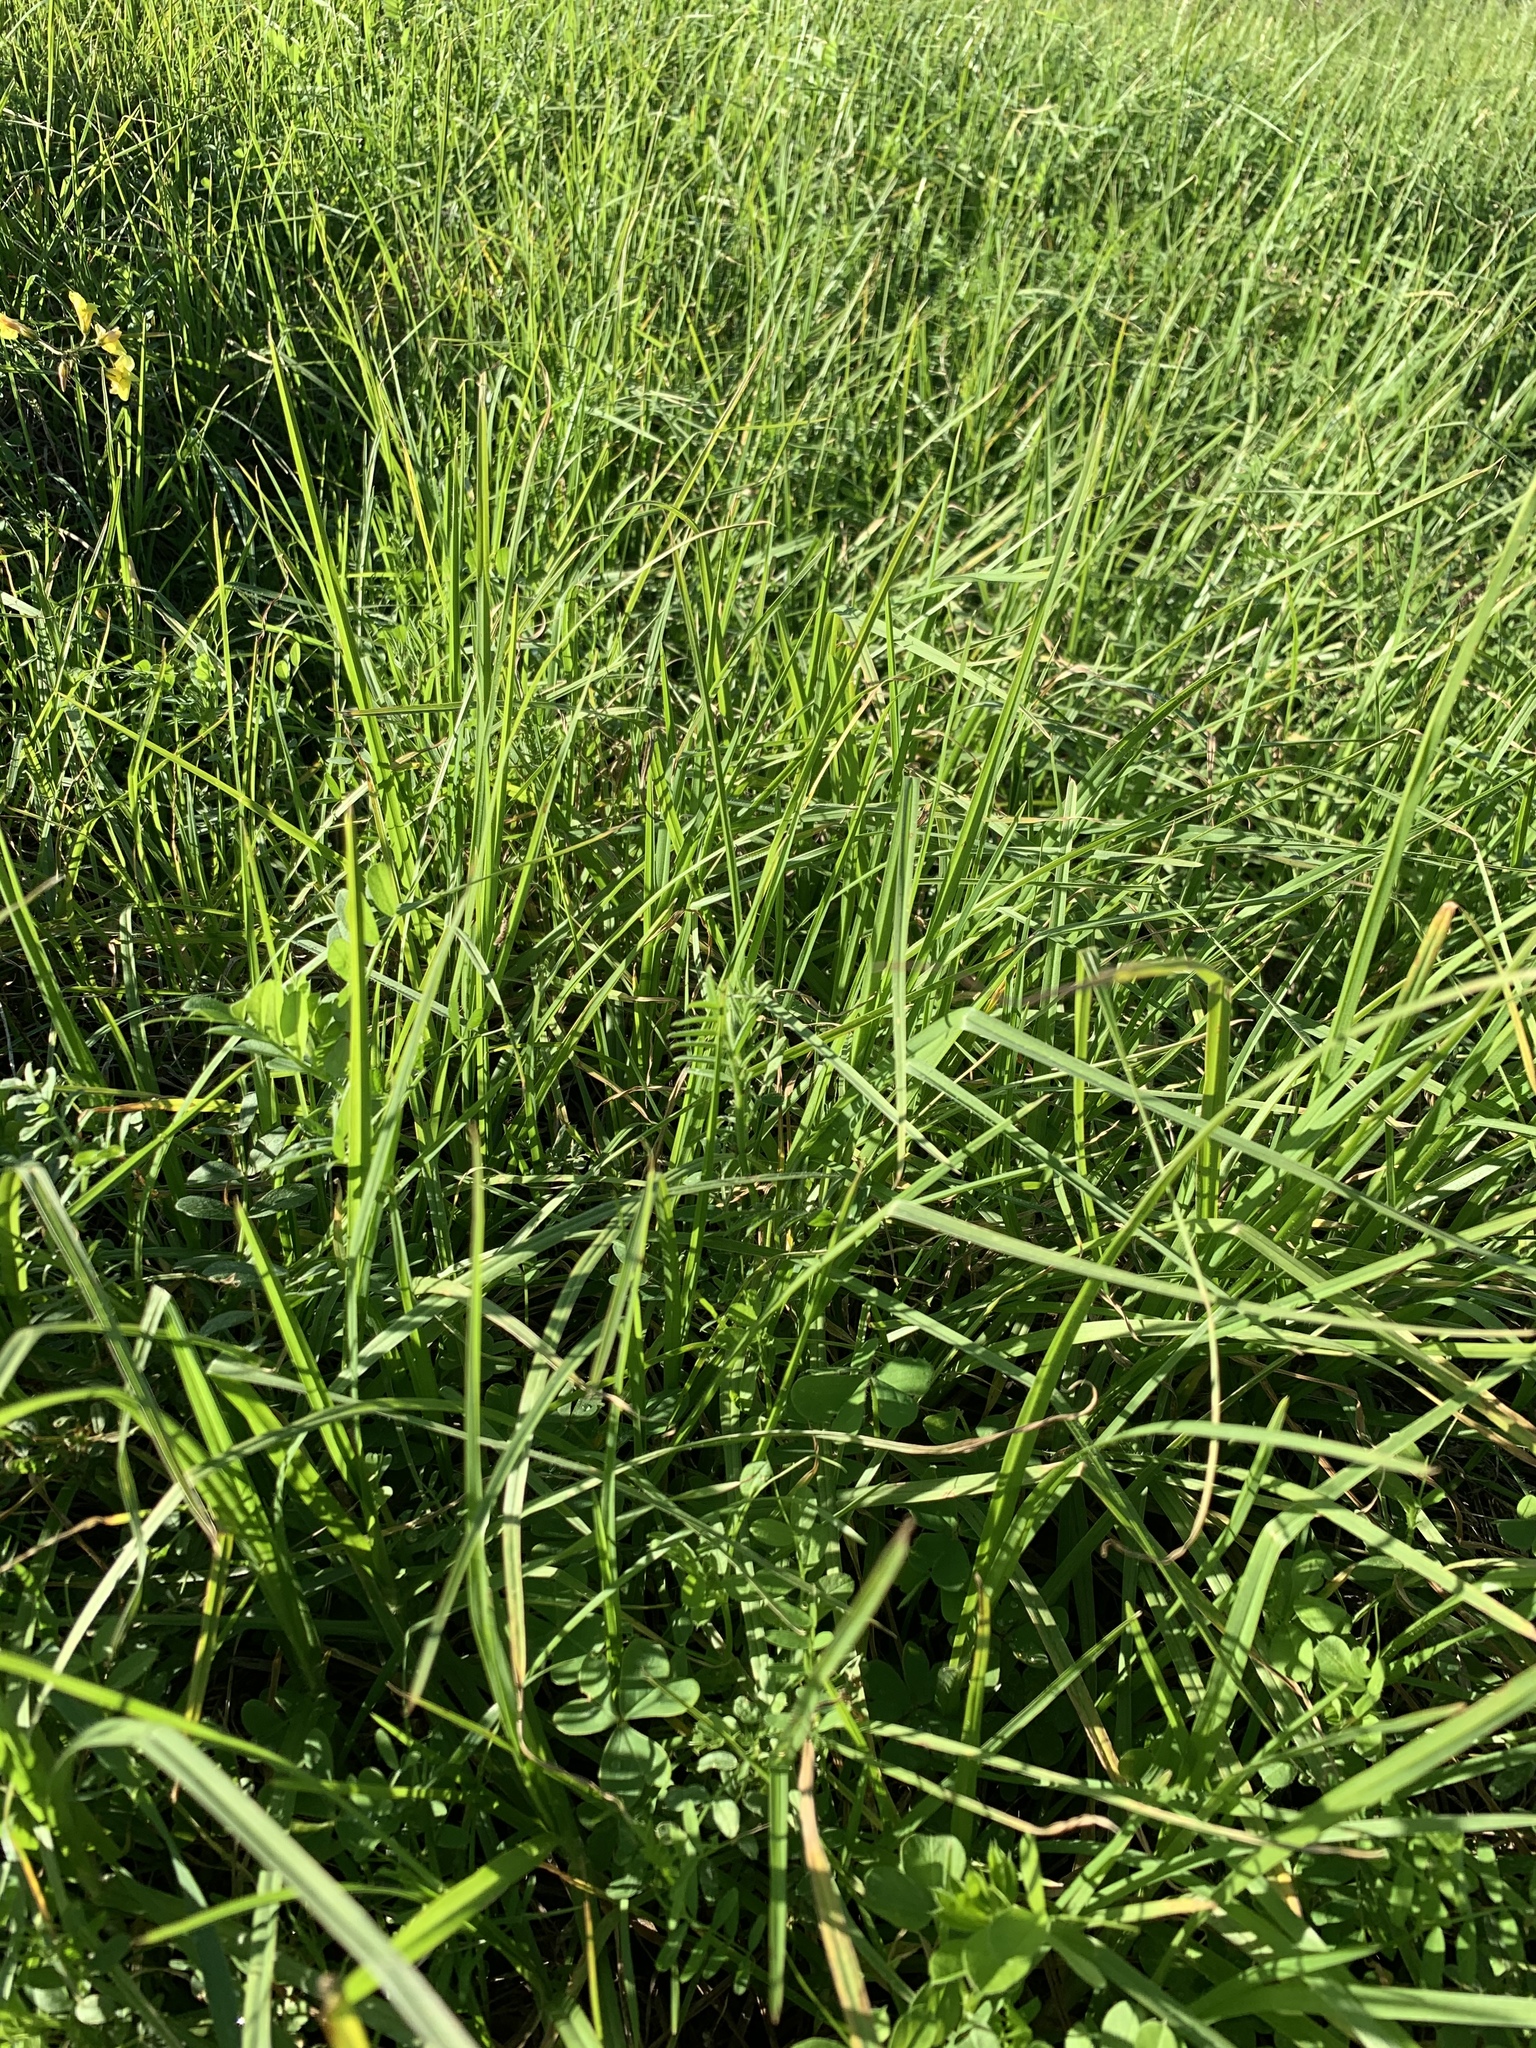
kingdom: Plantae
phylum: Tracheophyta
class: Liliopsida
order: Poales
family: Poaceae
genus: Cenchrus
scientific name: Cenchrus clandestinus
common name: Kikuyugrass
